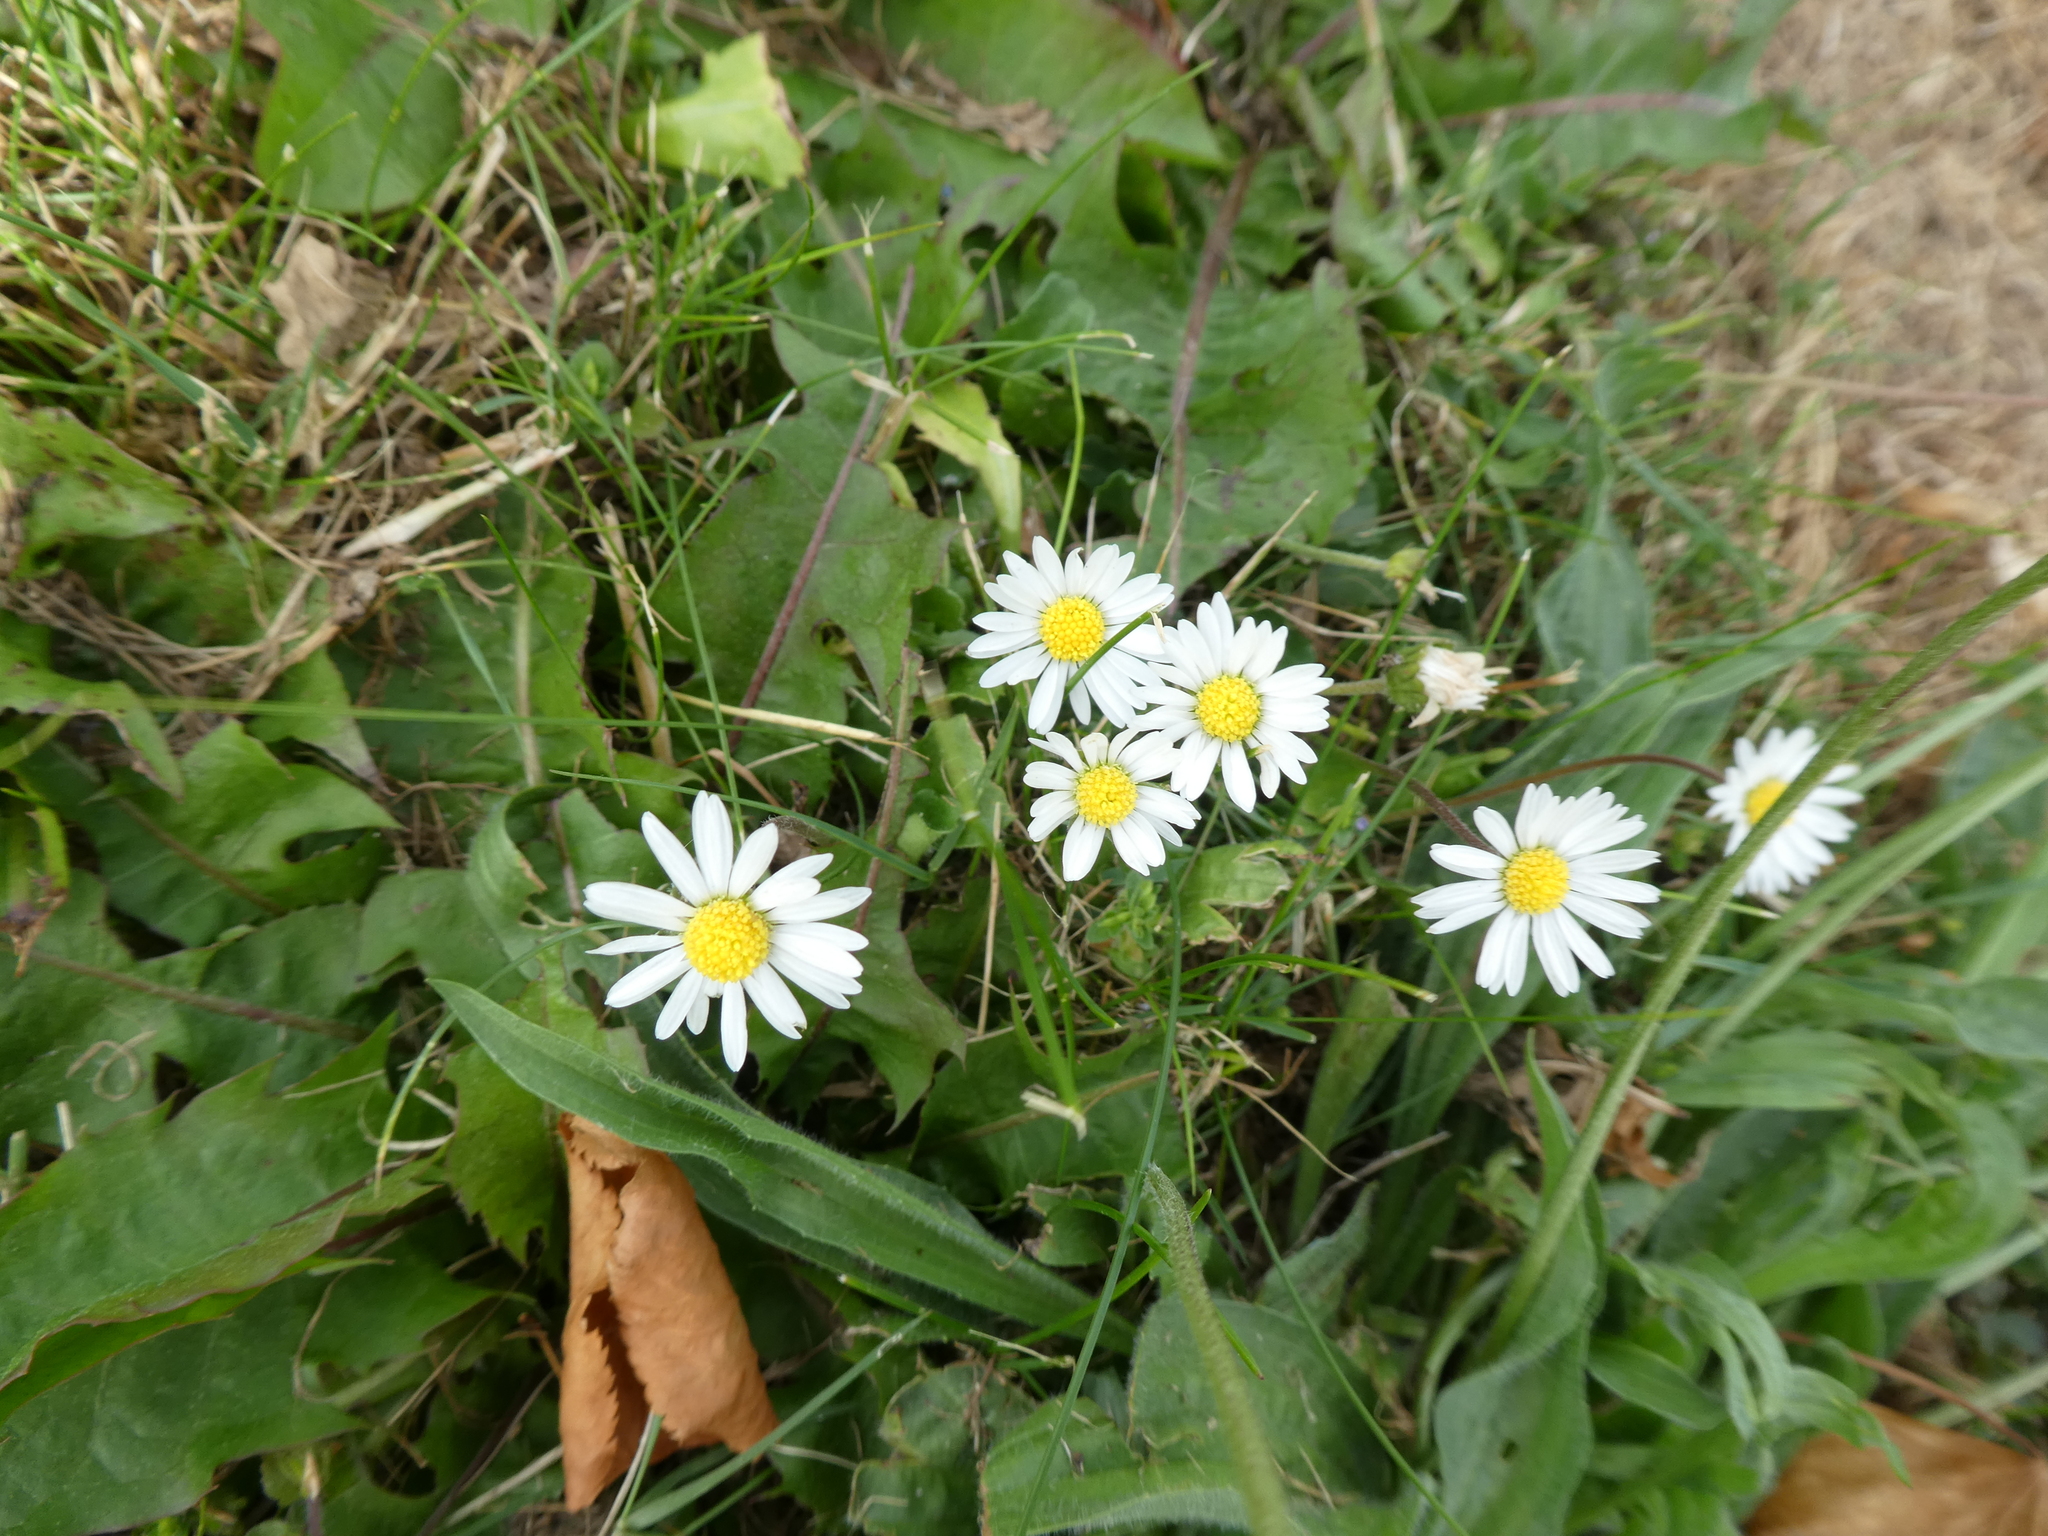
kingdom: Plantae
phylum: Tracheophyta
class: Magnoliopsida
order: Asterales
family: Asteraceae
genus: Bellis
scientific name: Bellis perennis
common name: Lawndaisy
